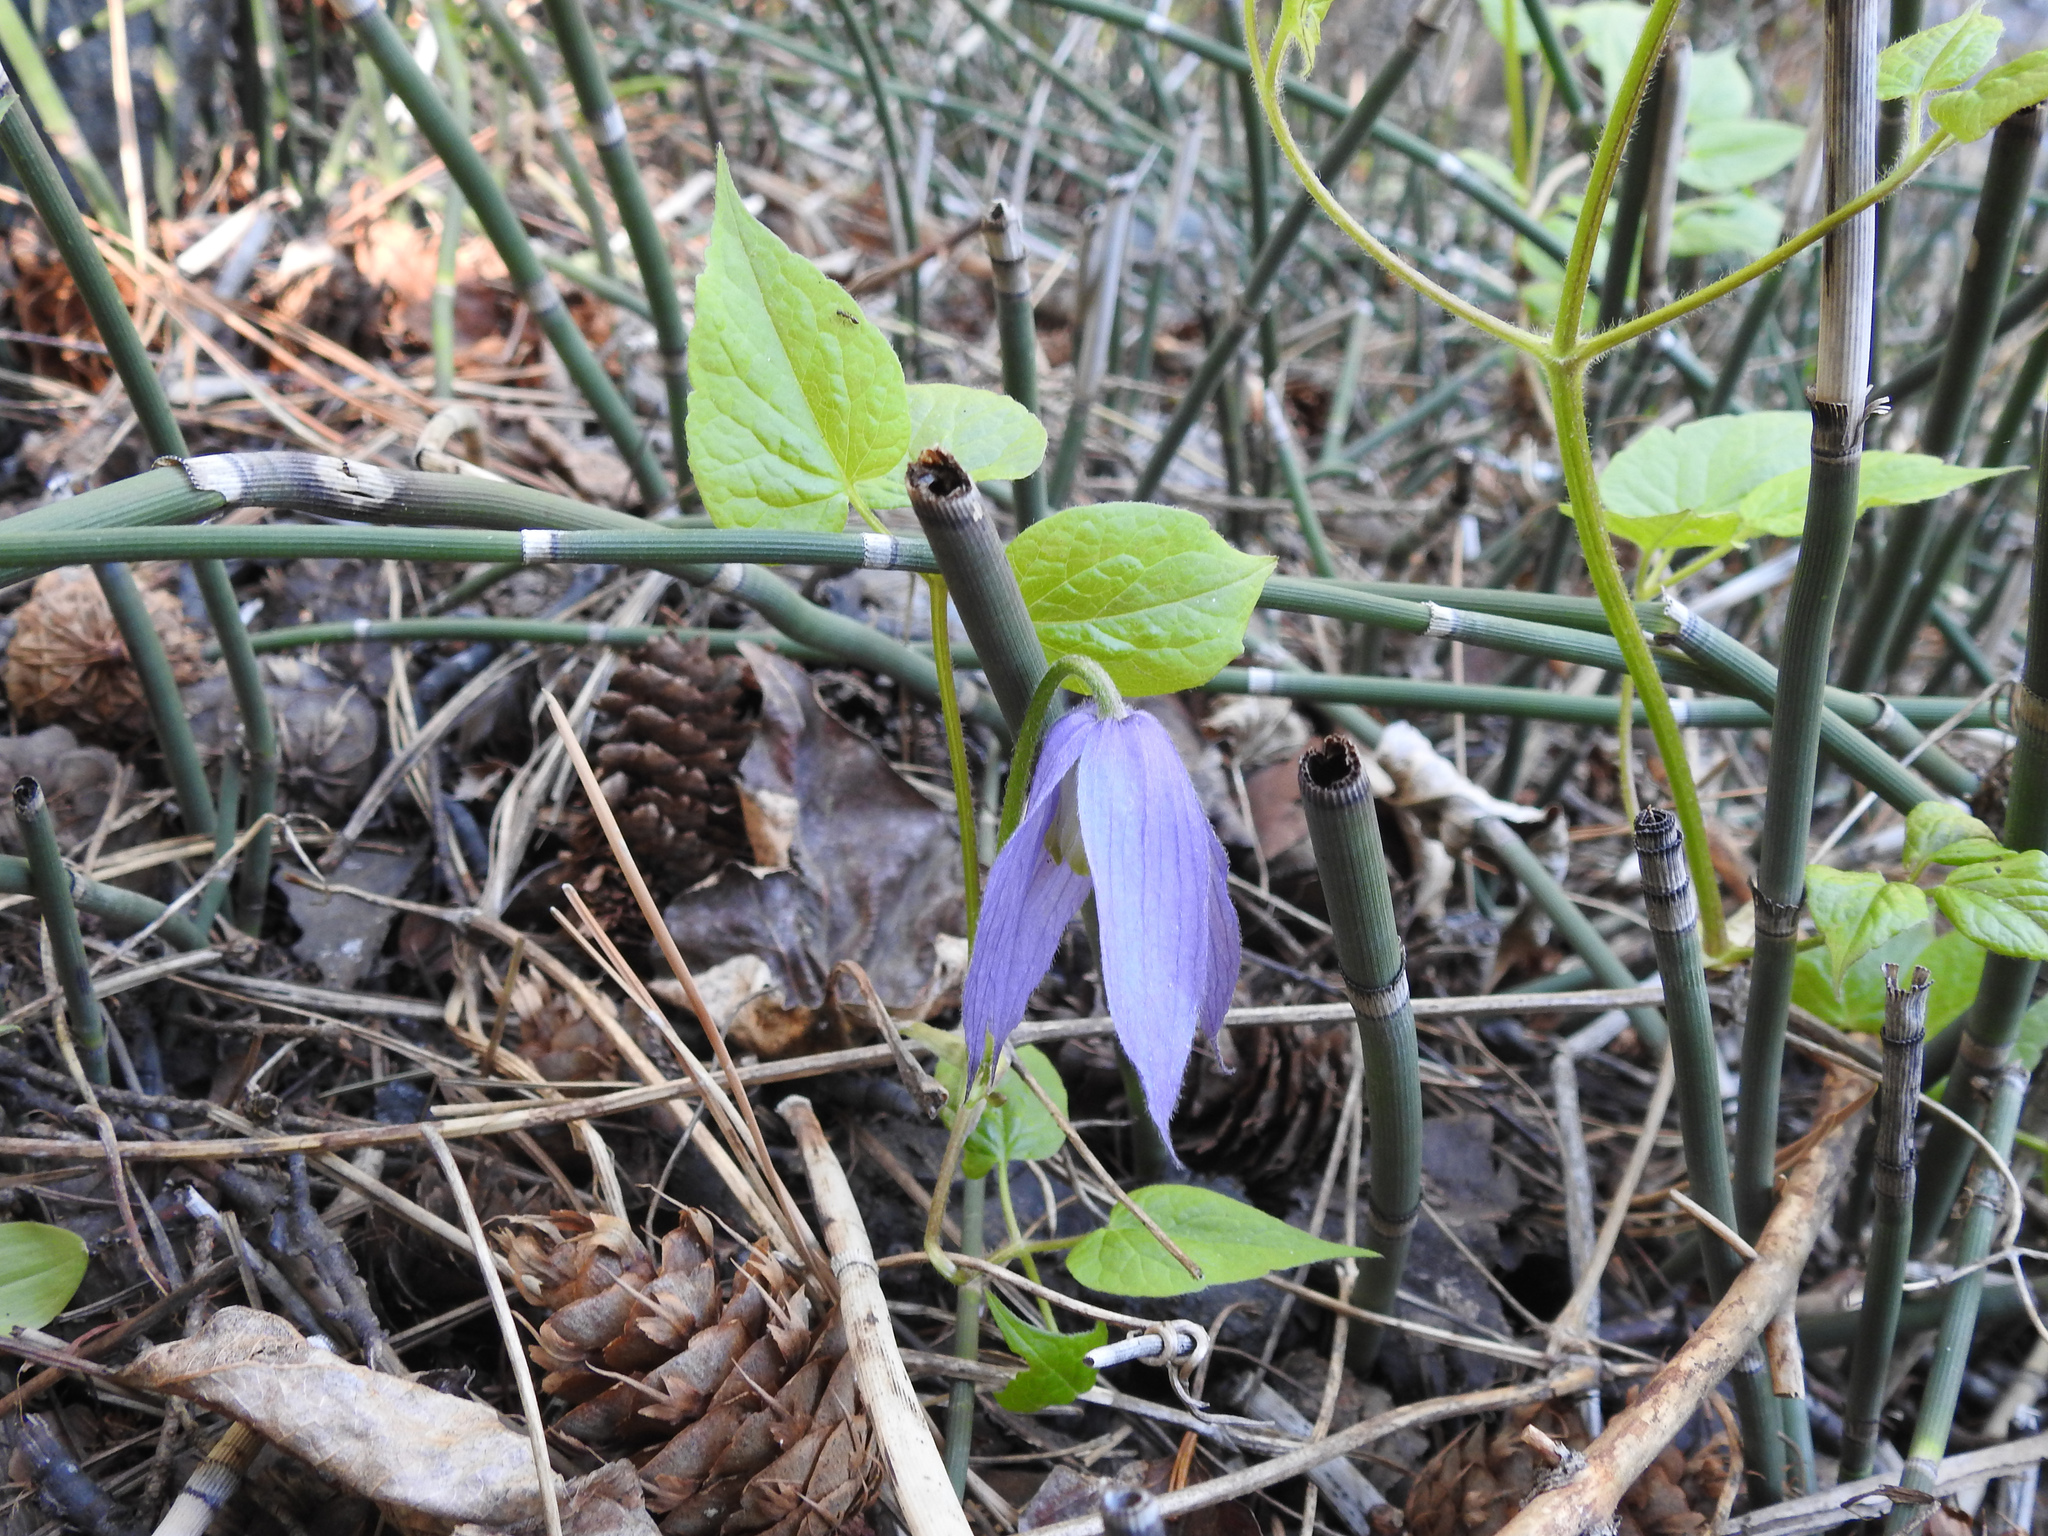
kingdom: Plantae
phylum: Tracheophyta
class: Magnoliopsida
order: Ranunculales
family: Ranunculaceae
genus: Clematis
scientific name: Clematis occidentalis
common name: Purple clematis
